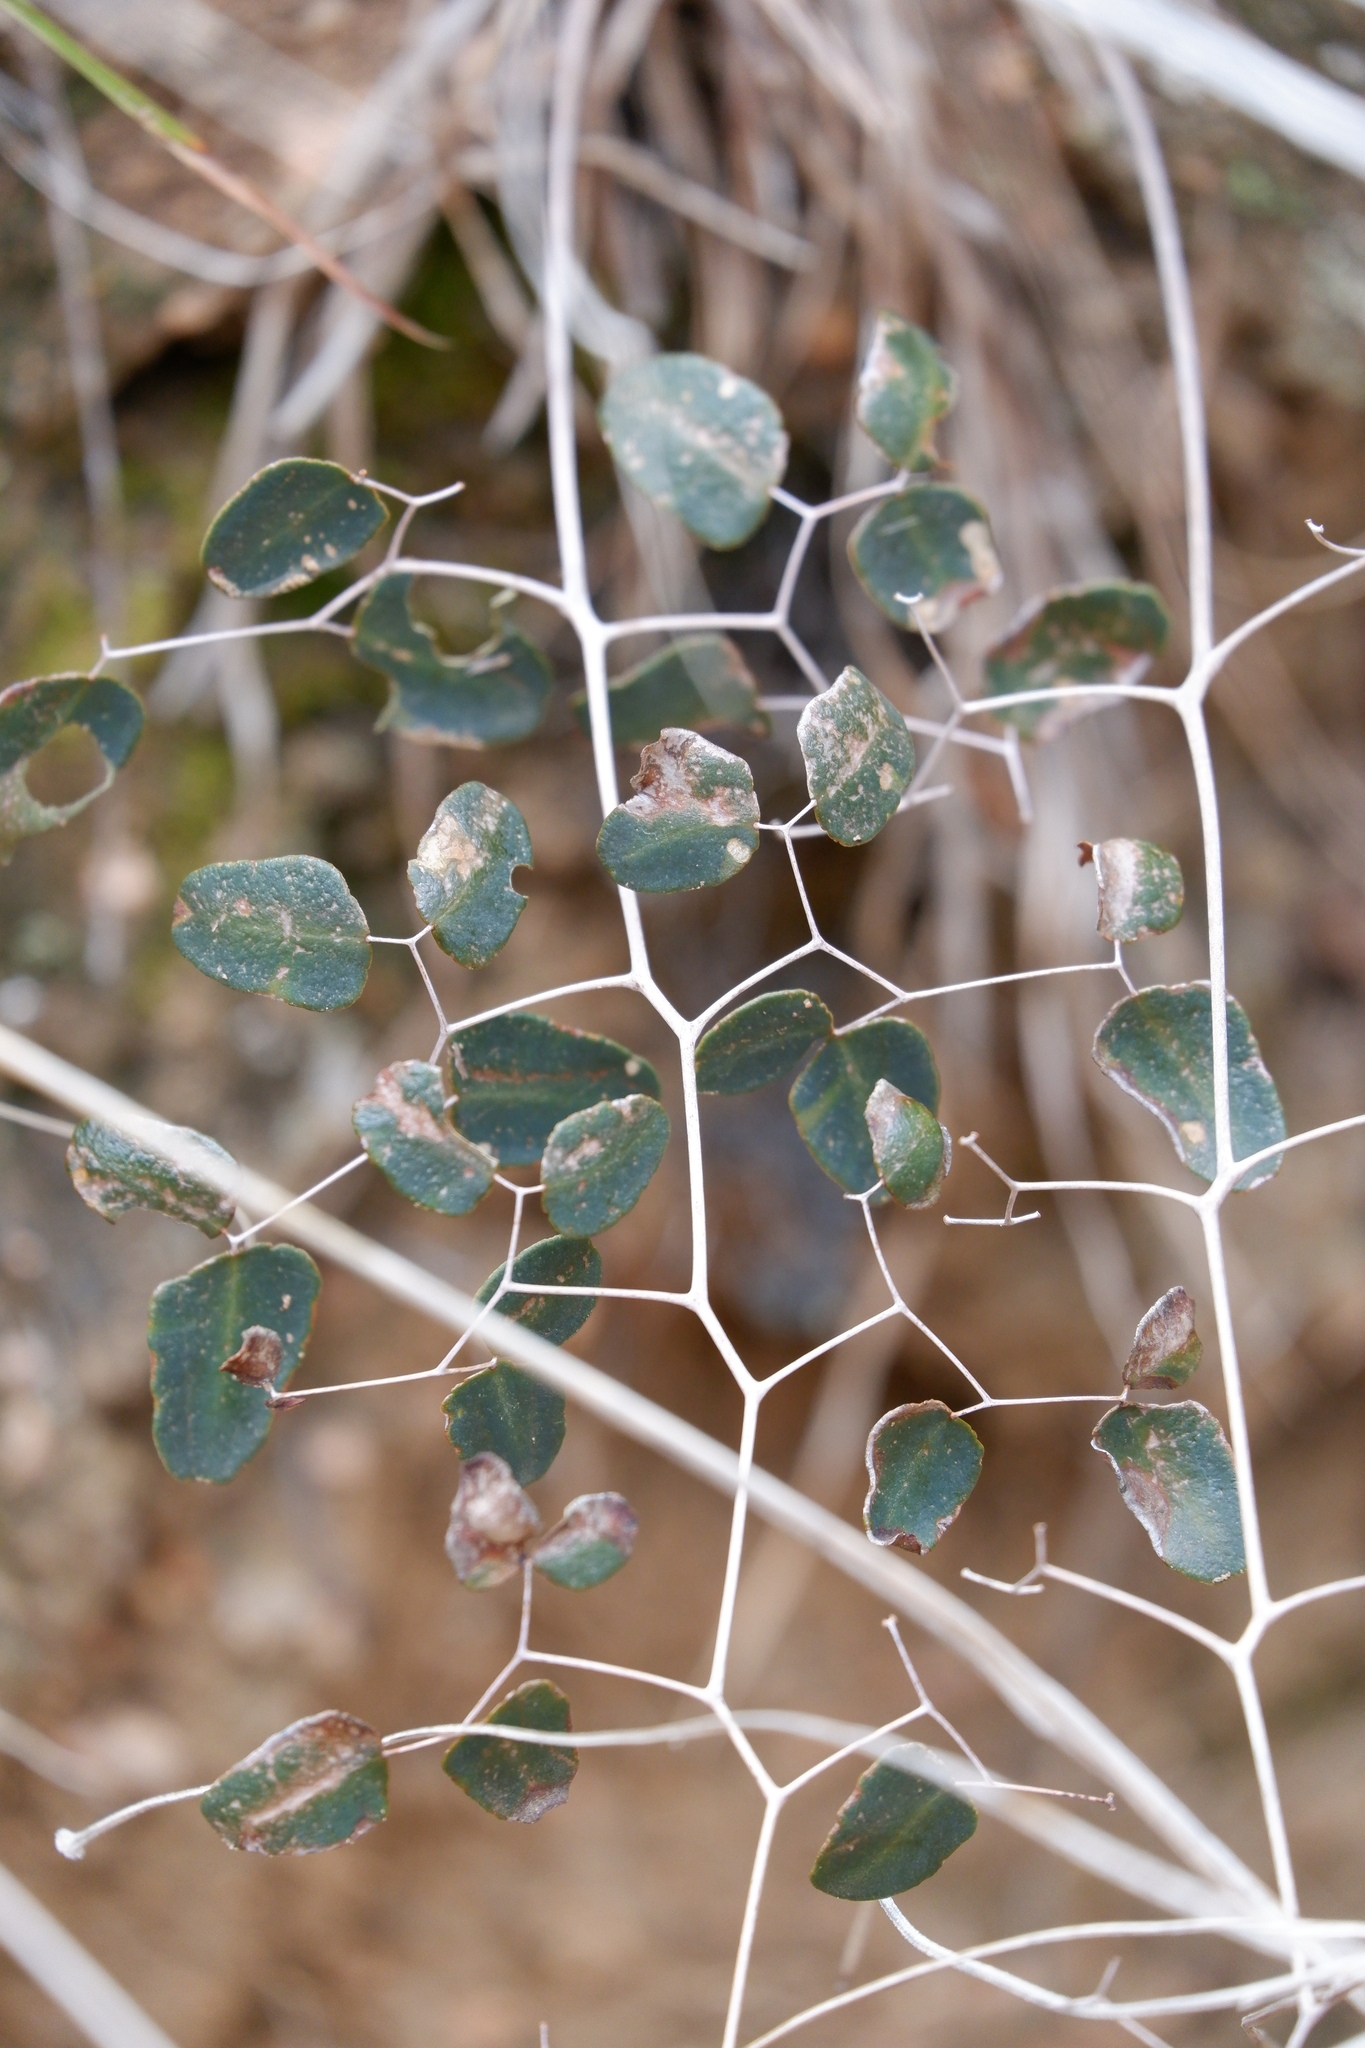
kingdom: Plantae
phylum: Tracheophyta
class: Polypodiopsida
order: Polypodiales
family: Pteridaceae
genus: Pellaea
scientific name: Pellaea ovata
